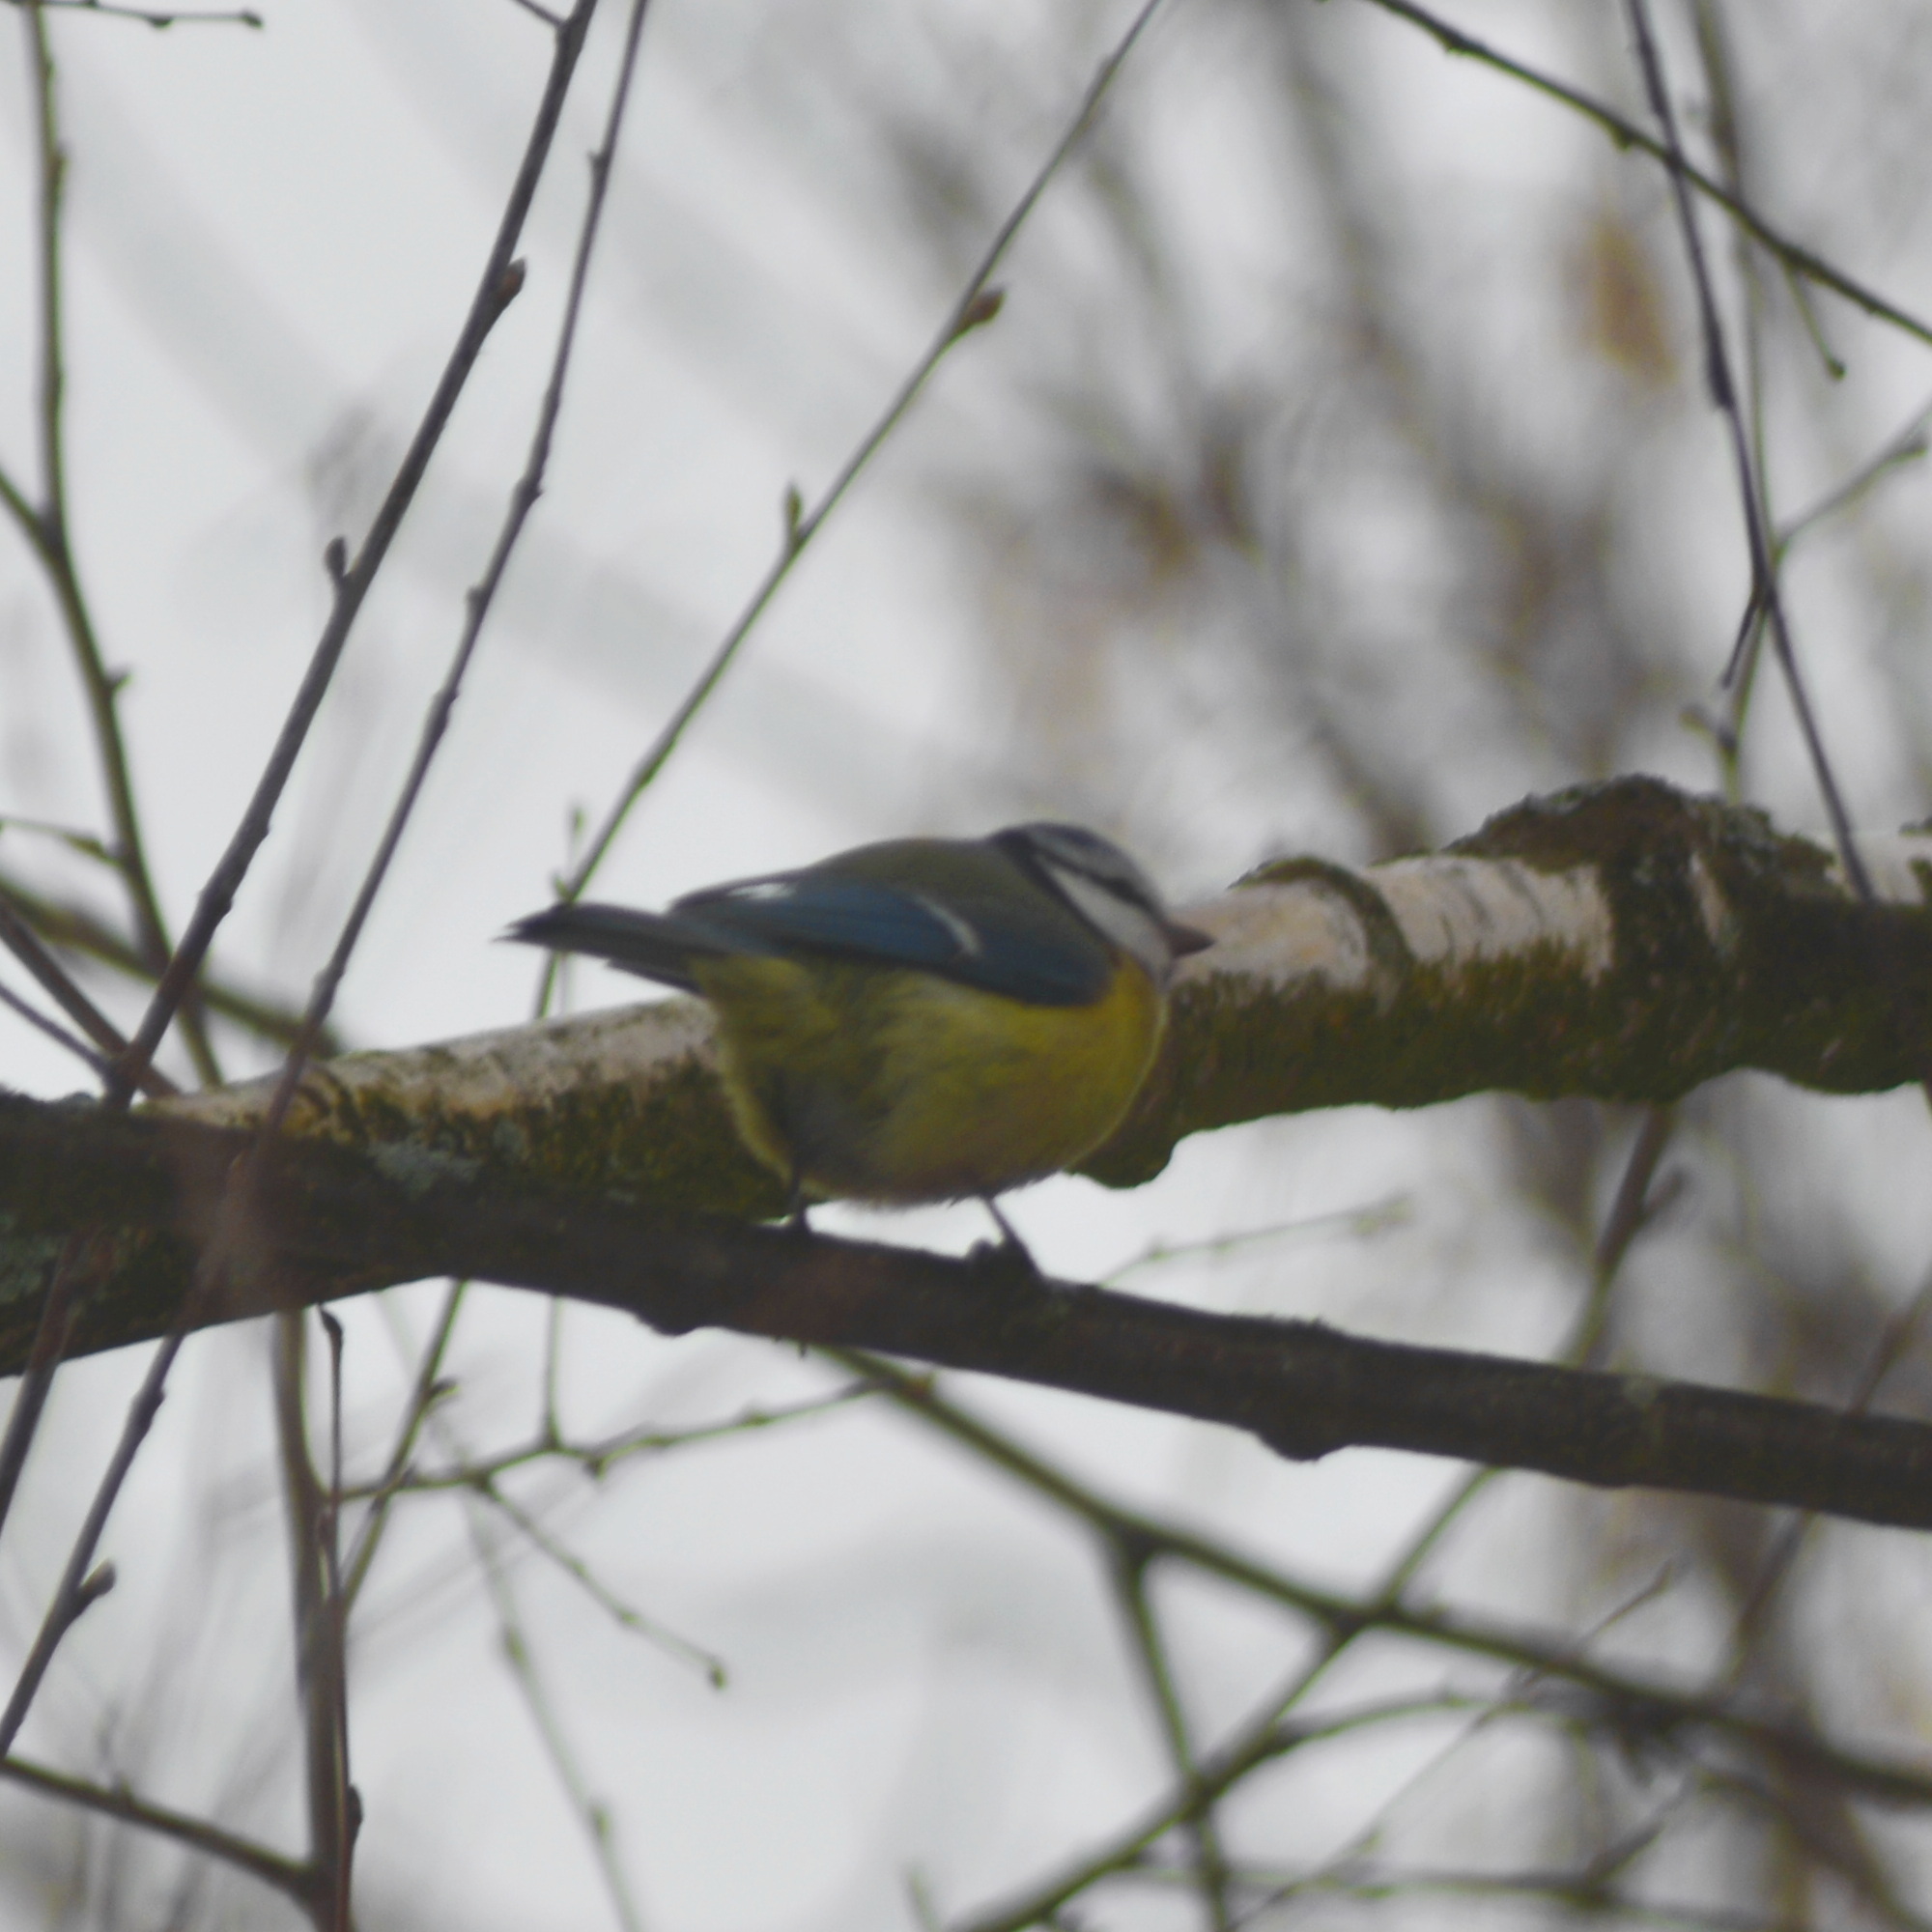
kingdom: Animalia
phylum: Chordata
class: Aves
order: Passeriformes
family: Paridae
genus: Cyanistes
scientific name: Cyanistes caeruleus
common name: Eurasian blue tit
